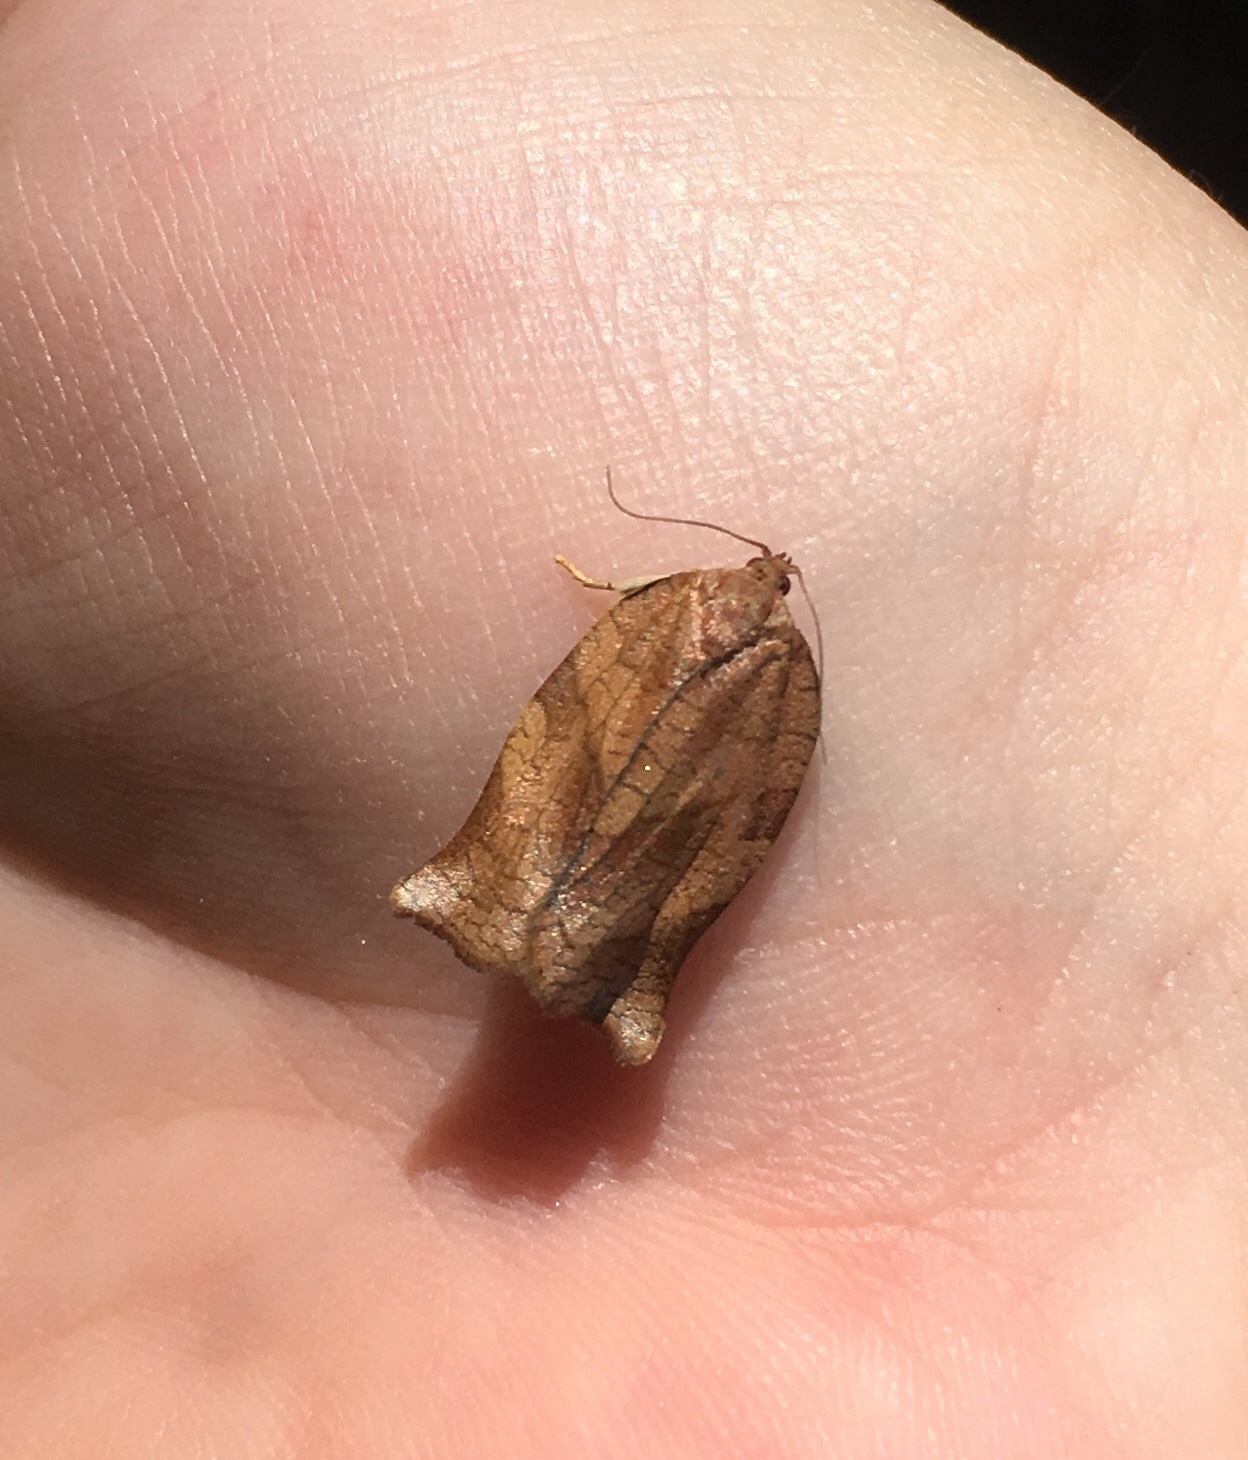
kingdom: Animalia
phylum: Arthropoda
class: Insecta
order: Lepidoptera
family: Tortricidae
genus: Choristoneura
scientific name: Choristoneura rosaceana
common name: Oblique-banded leafroller moth
